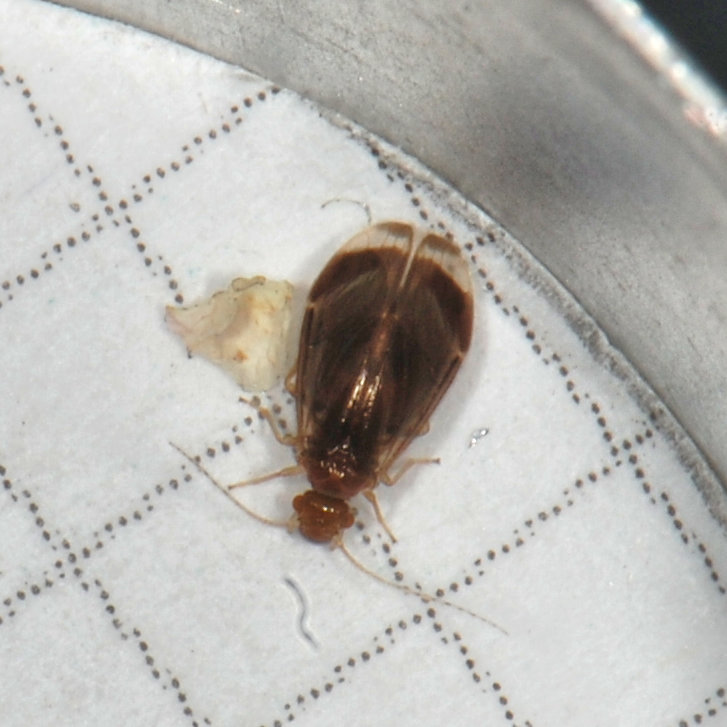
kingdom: Animalia
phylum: Arthropoda
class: Insecta
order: Psocodea
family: Amphipsocidae
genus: Polypsocus
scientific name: Polypsocus corruptus
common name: Corrupt barklouse
